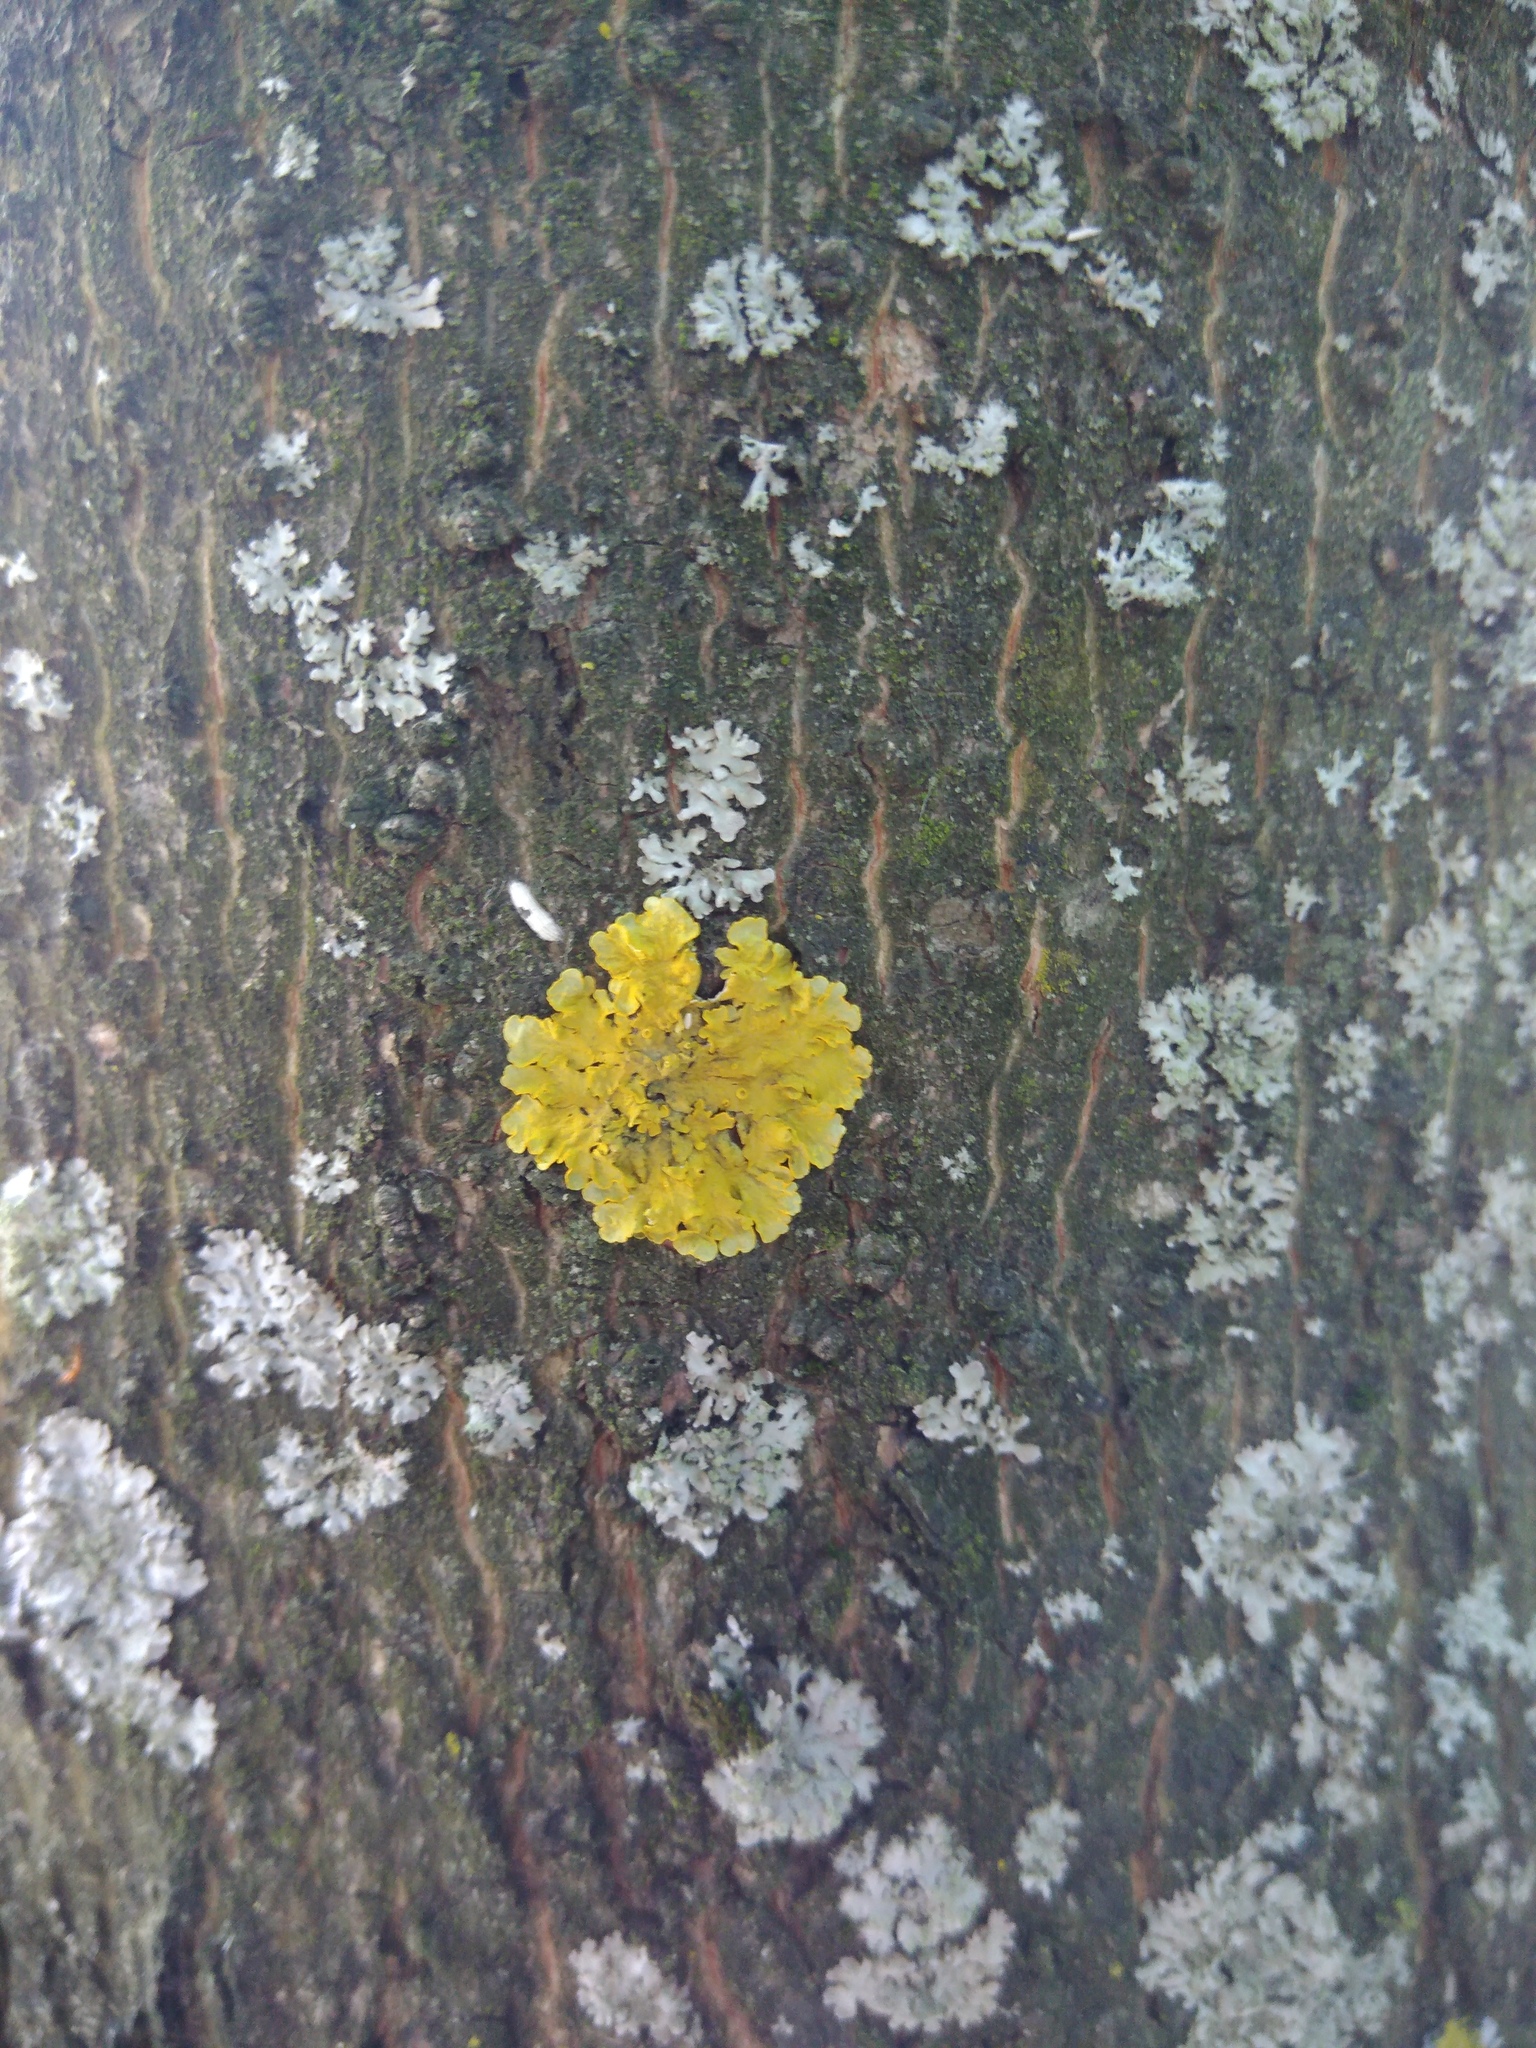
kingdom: Fungi
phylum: Ascomycota
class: Lecanoromycetes
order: Teloschistales
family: Teloschistaceae
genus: Xanthoria
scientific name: Xanthoria parietina
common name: Common orange lichen
